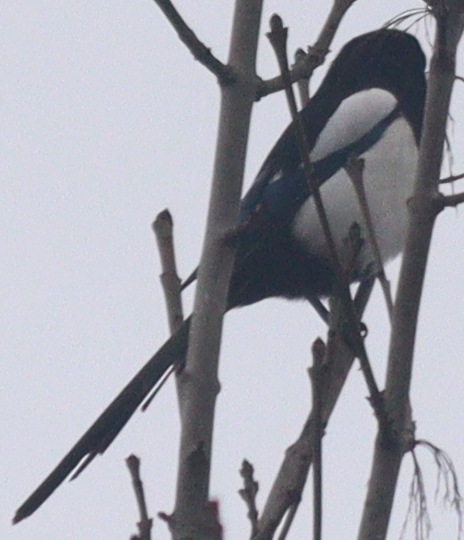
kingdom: Animalia
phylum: Chordata
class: Aves
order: Passeriformes
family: Corvidae
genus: Pica
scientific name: Pica pica
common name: Eurasian magpie
